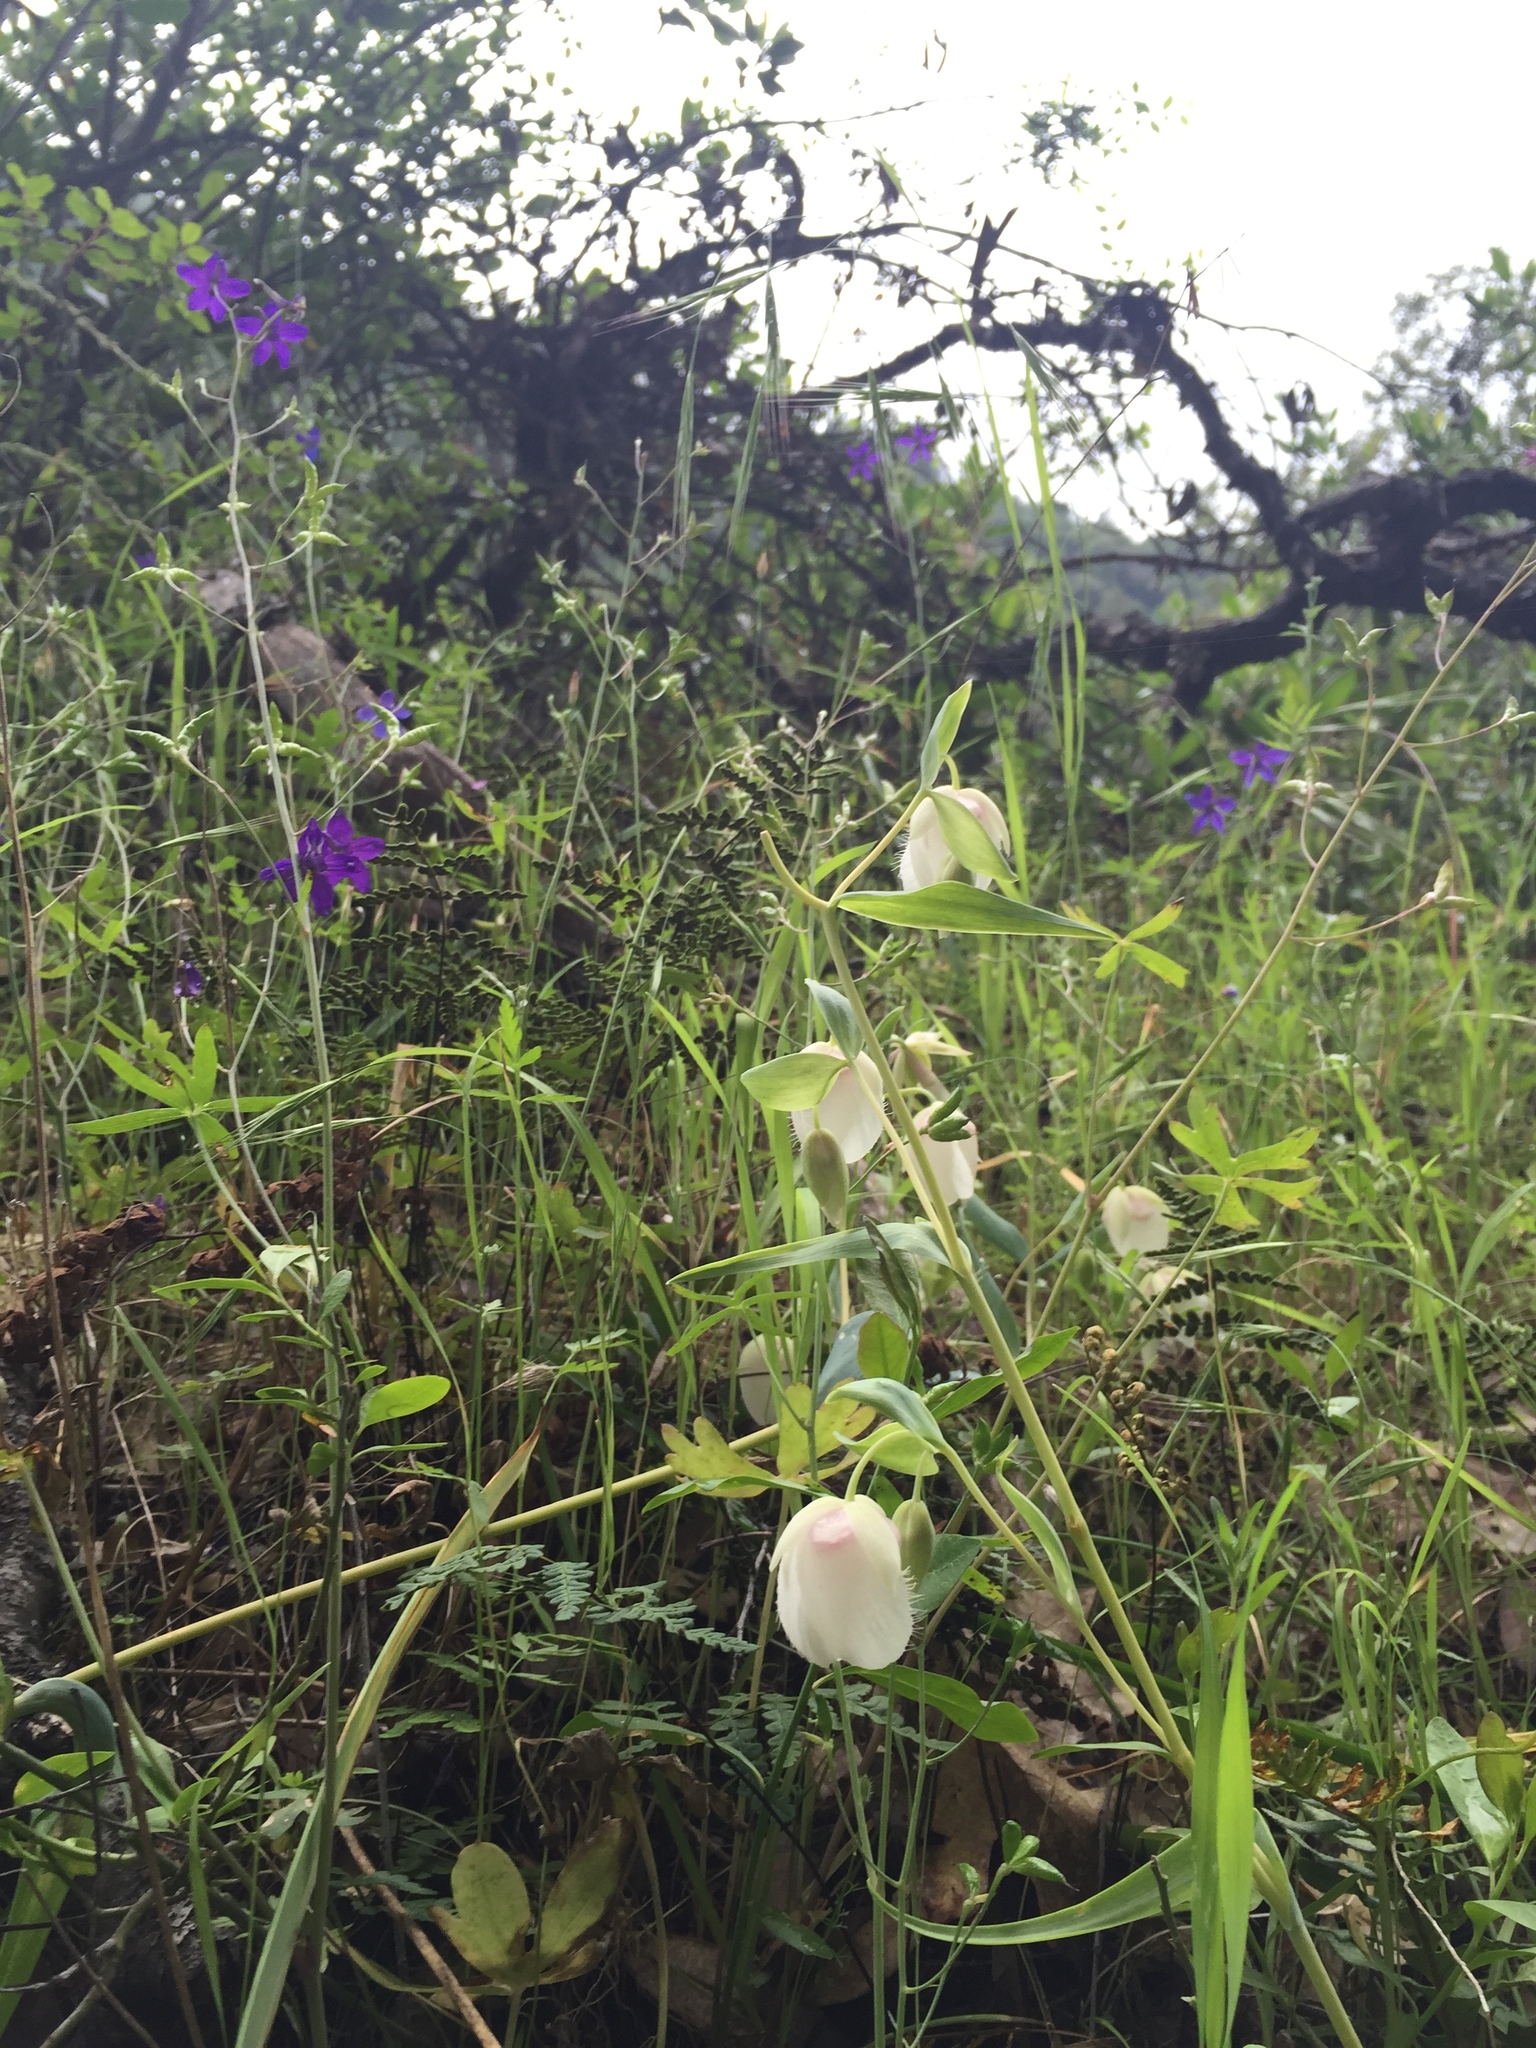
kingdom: Plantae
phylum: Tracheophyta
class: Liliopsida
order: Liliales
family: Liliaceae
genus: Calochortus
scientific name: Calochortus albus
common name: Fairy-lantern
